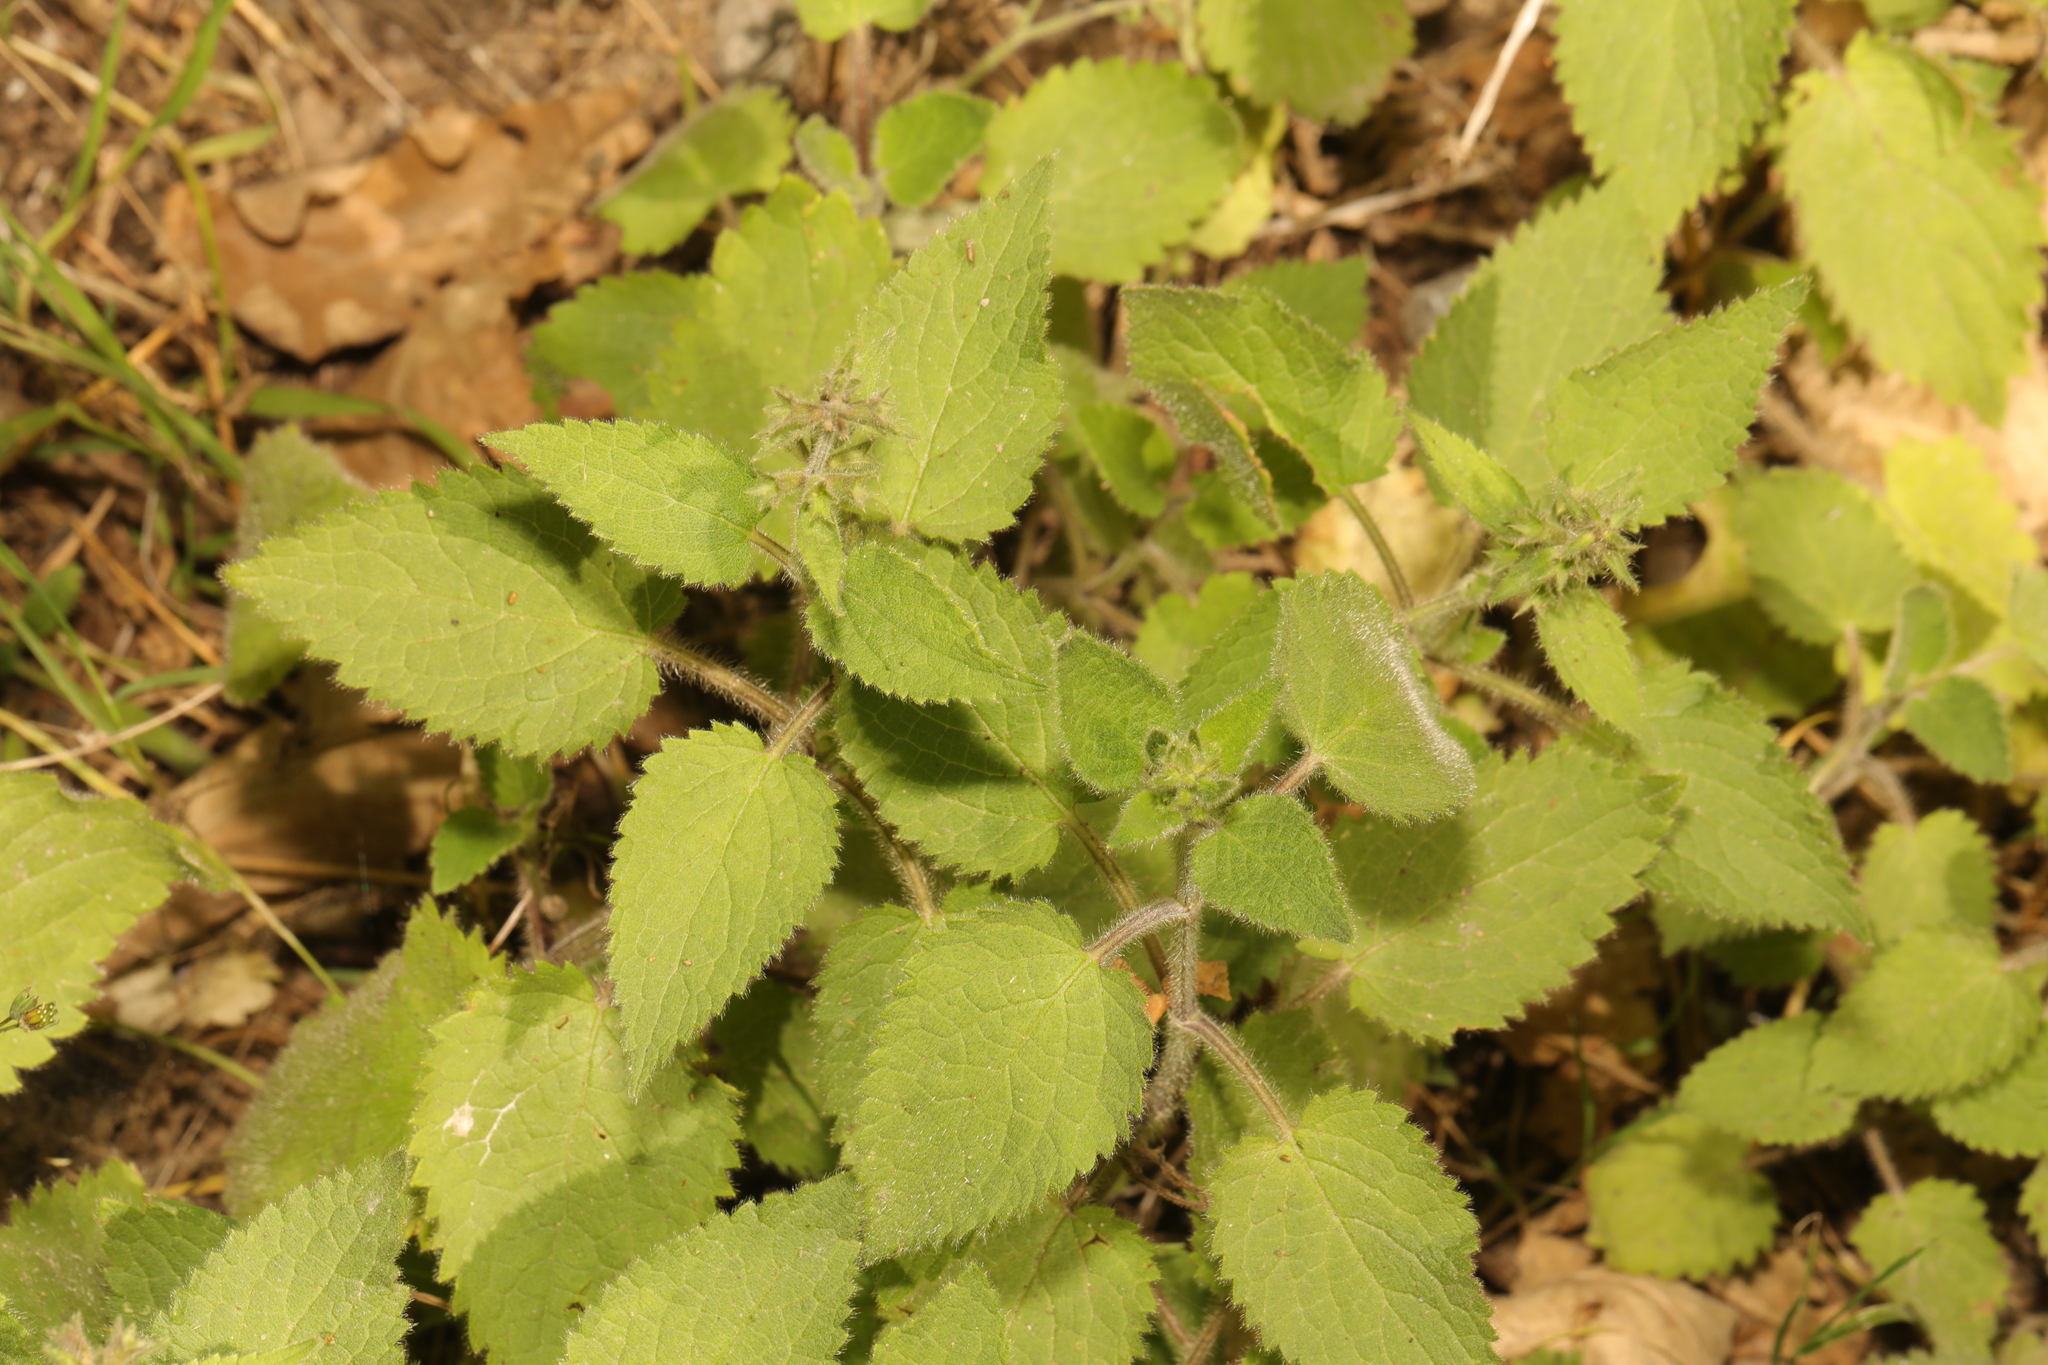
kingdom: Plantae
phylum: Tracheophyta
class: Magnoliopsida
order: Lamiales
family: Lamiaceae
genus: Stachys
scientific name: Stachys sylvatica
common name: Hedge woundwort
